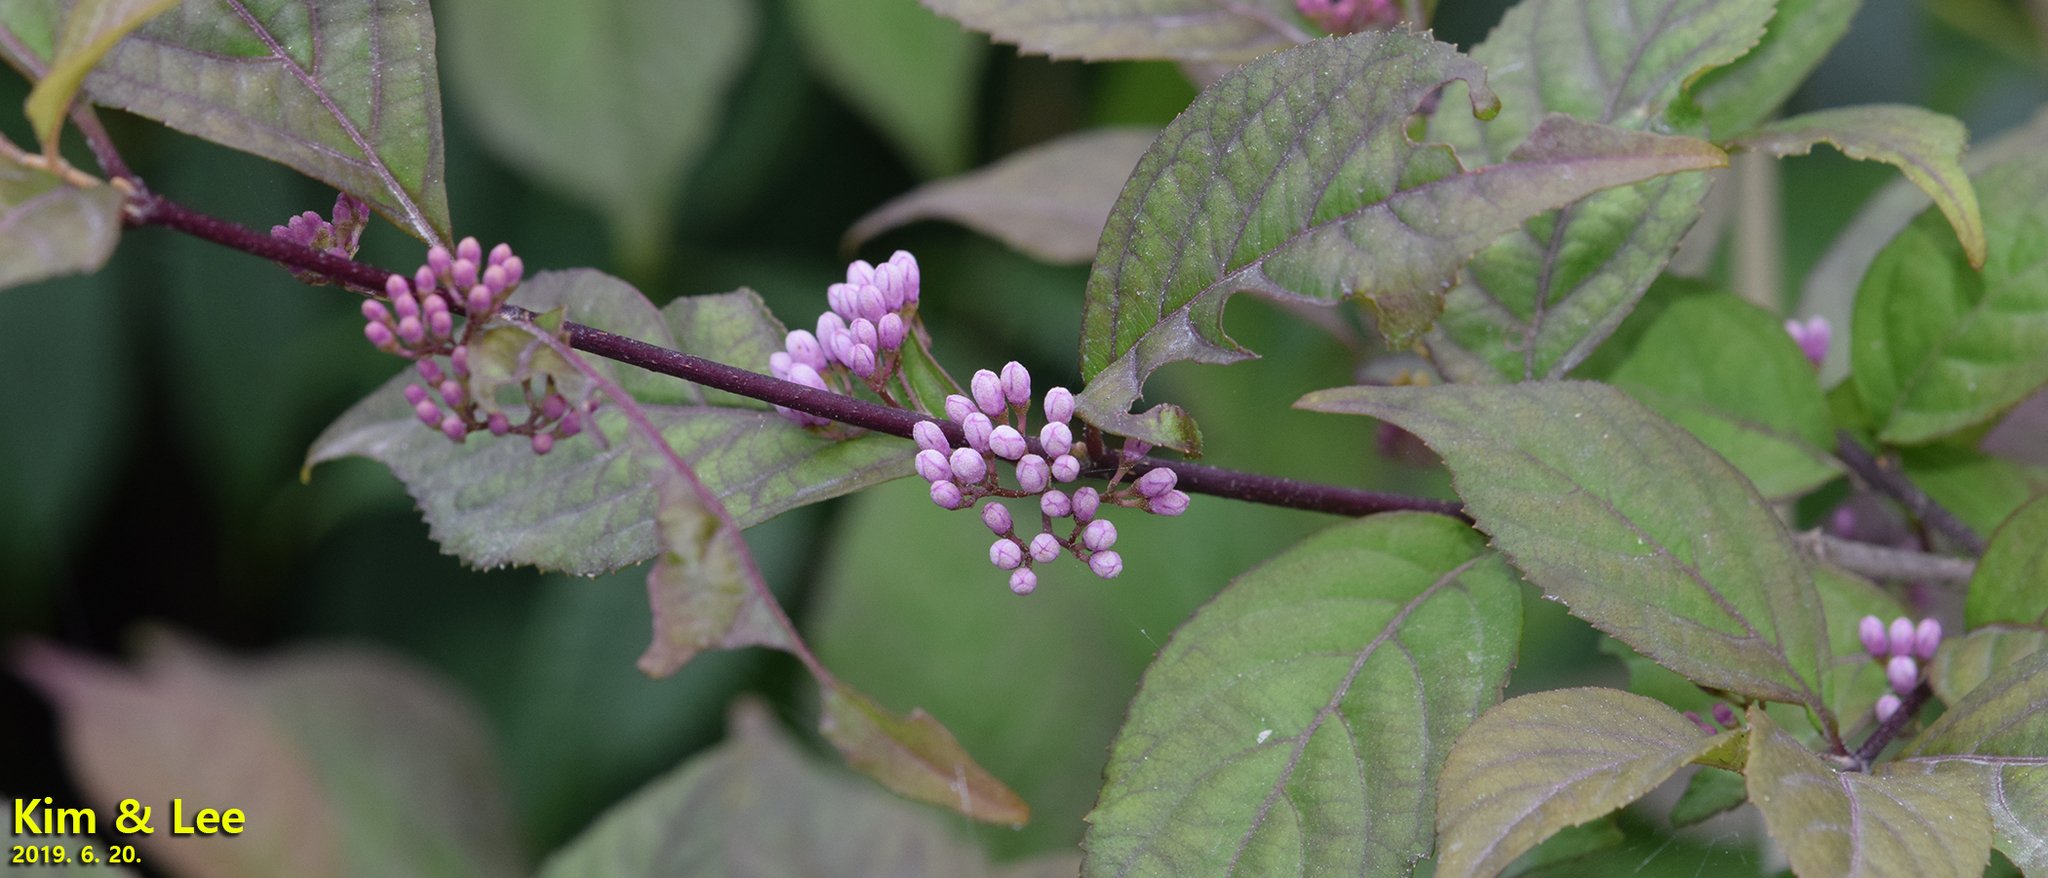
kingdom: Plantae
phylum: Tracheophyta
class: Magnoliopsida
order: Lamiales
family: Lamiaceae
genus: Callicarpa
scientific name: Callicarpa japonica
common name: Japanese beauty-berry
